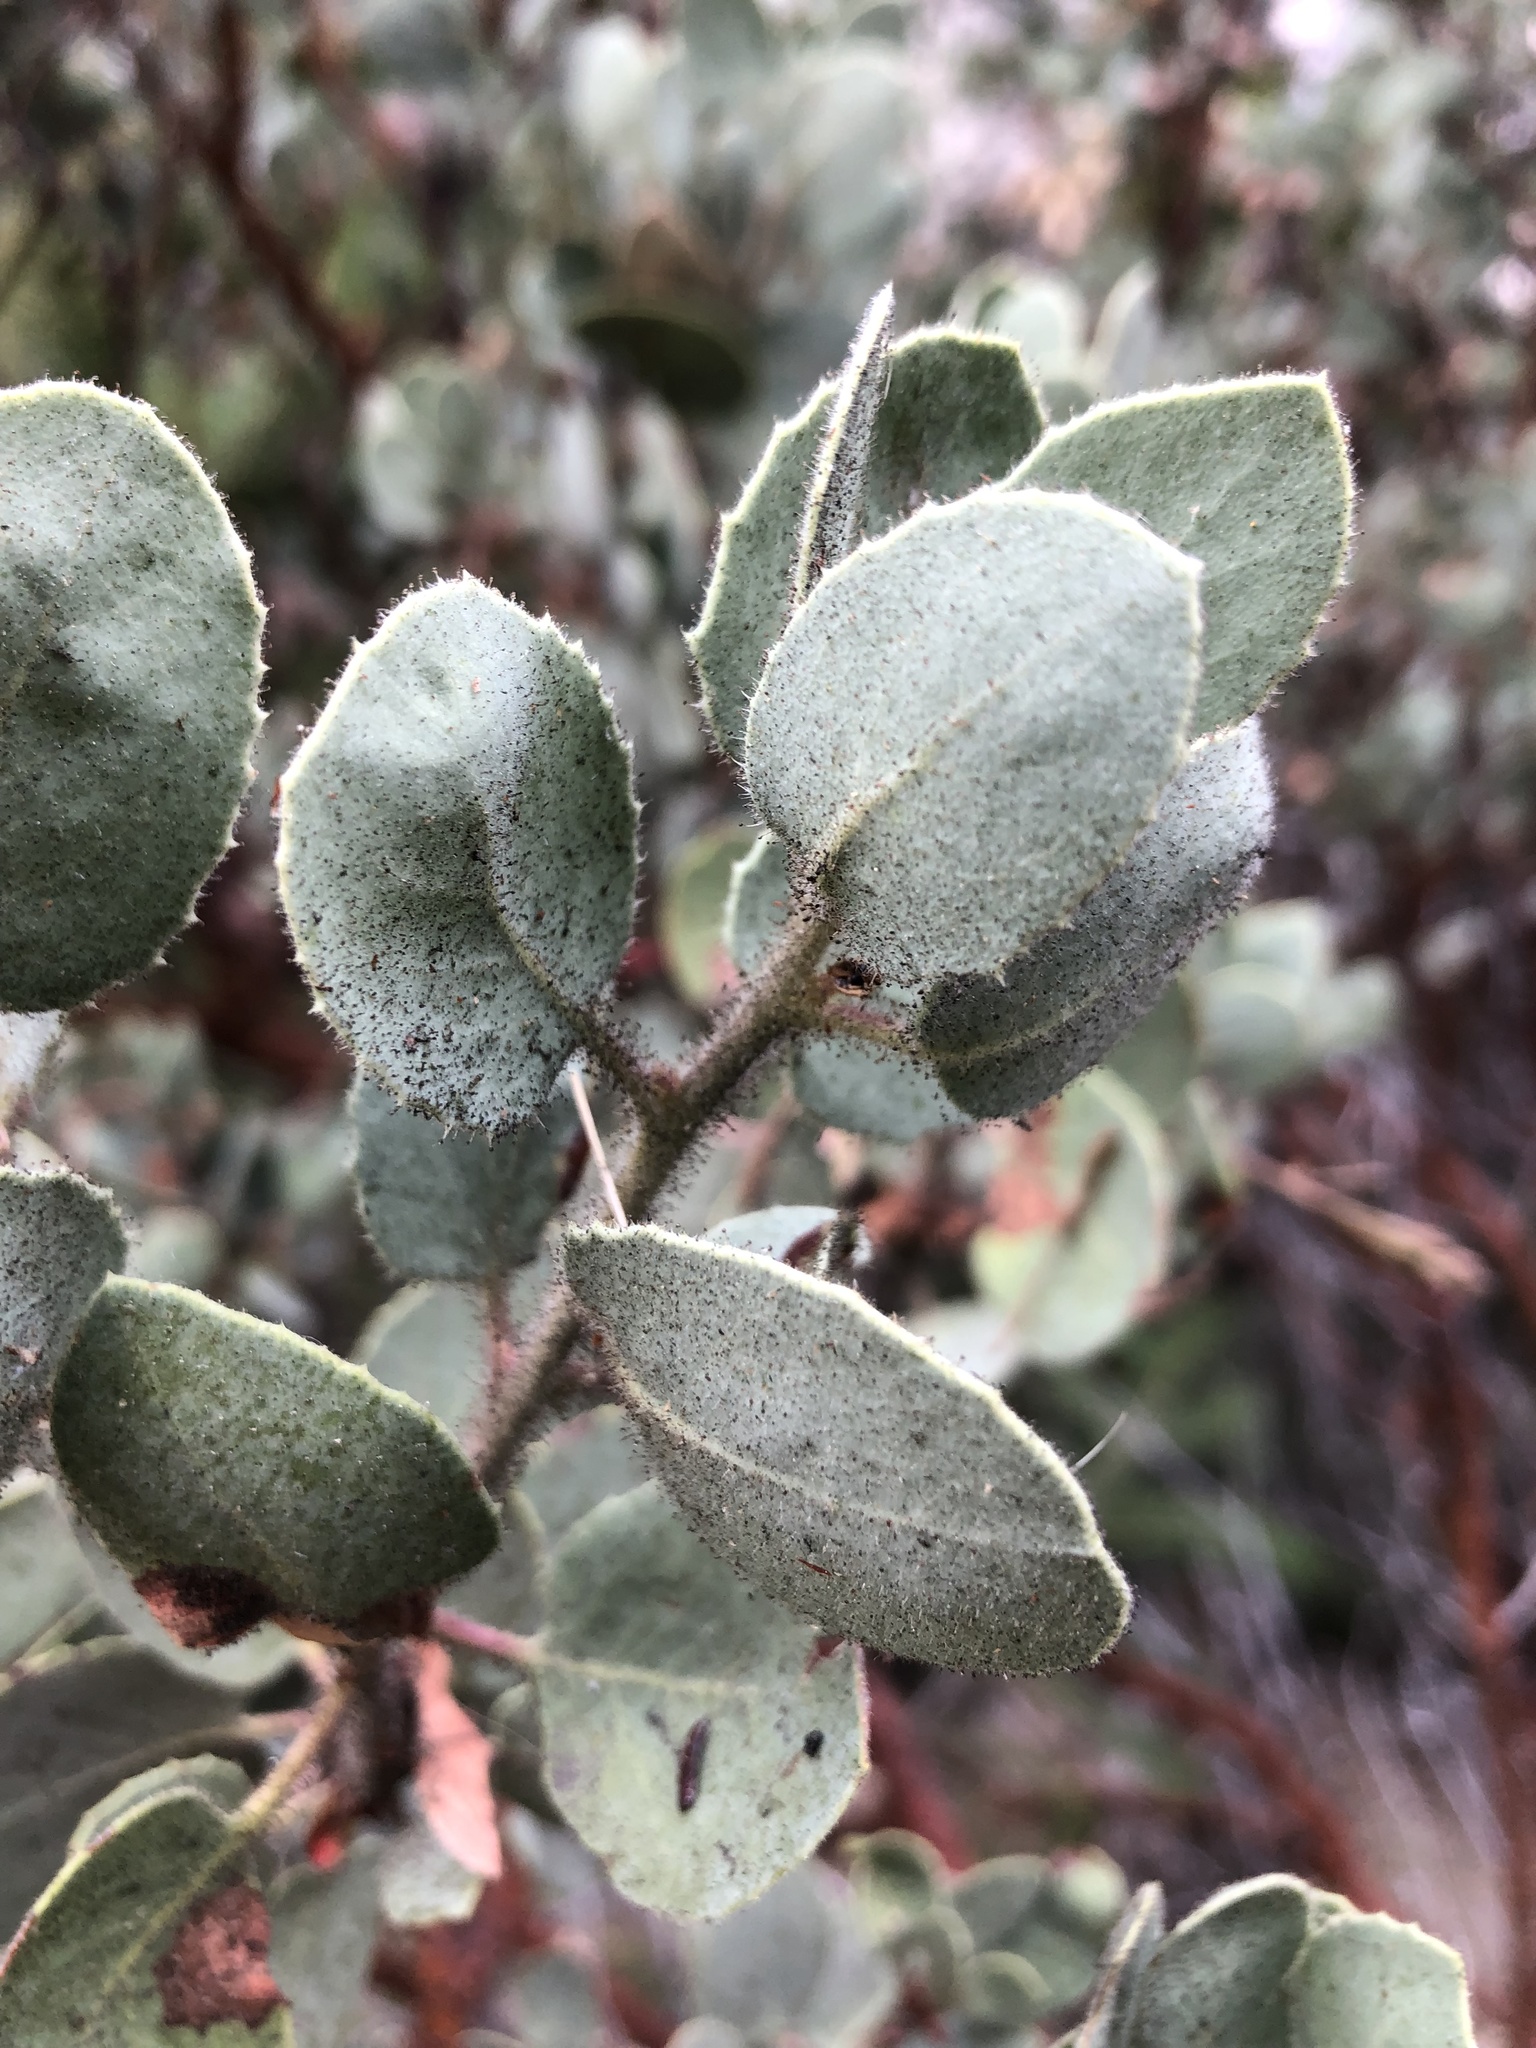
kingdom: Plantae
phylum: Tracheophyta
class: Magnoliopsida
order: Ericales
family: Ericaceae
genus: Arctostaphylos
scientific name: Arctostaphylos viscida
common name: White-leaf manzanita
